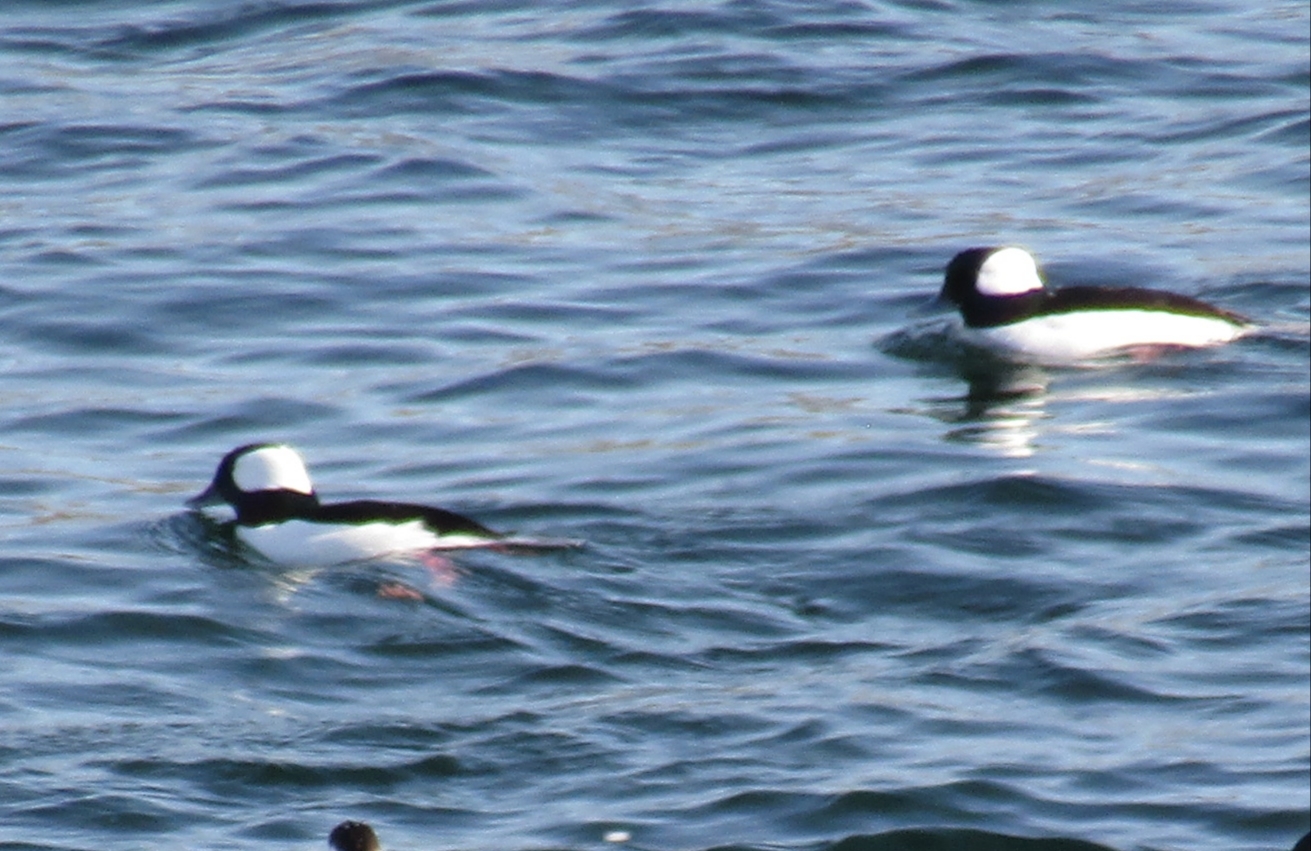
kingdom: Animalia
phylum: Chordata
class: Aves
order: Anseriformes
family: Anatidae
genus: Bucephala
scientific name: Bucephala albeola
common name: Bufflehead
